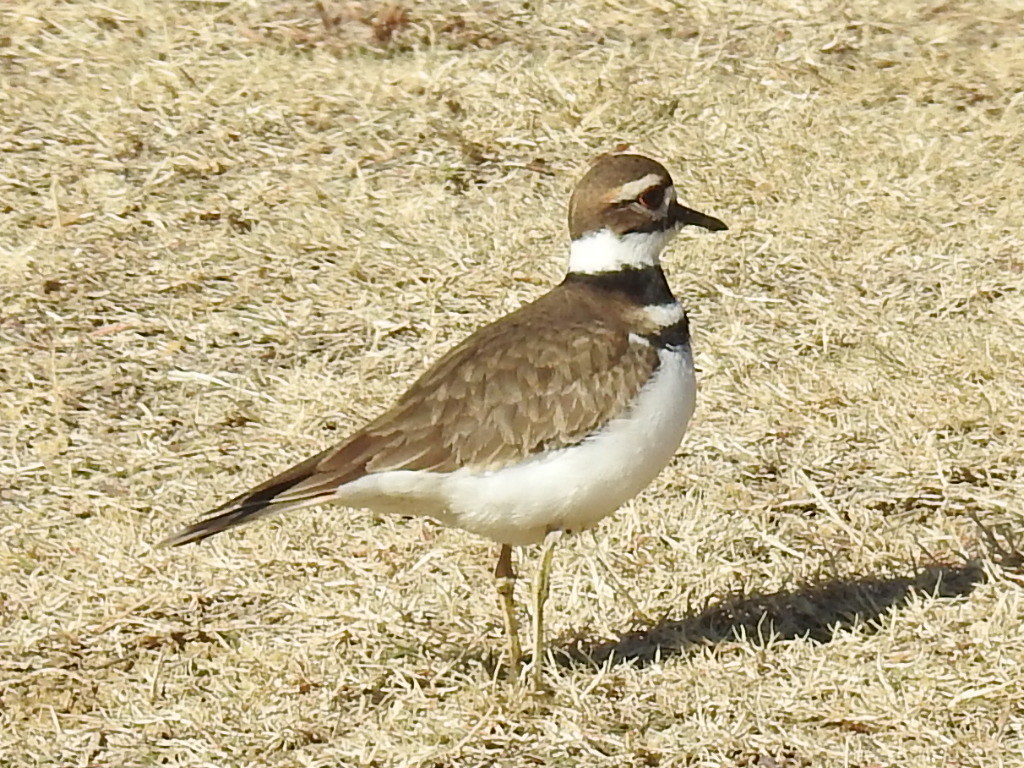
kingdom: Animalia
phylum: Chordata
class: Aves
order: Charadriiformes
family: Charadriidae
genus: Charadrius
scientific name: Charadrius vociferus
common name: Killdeer
